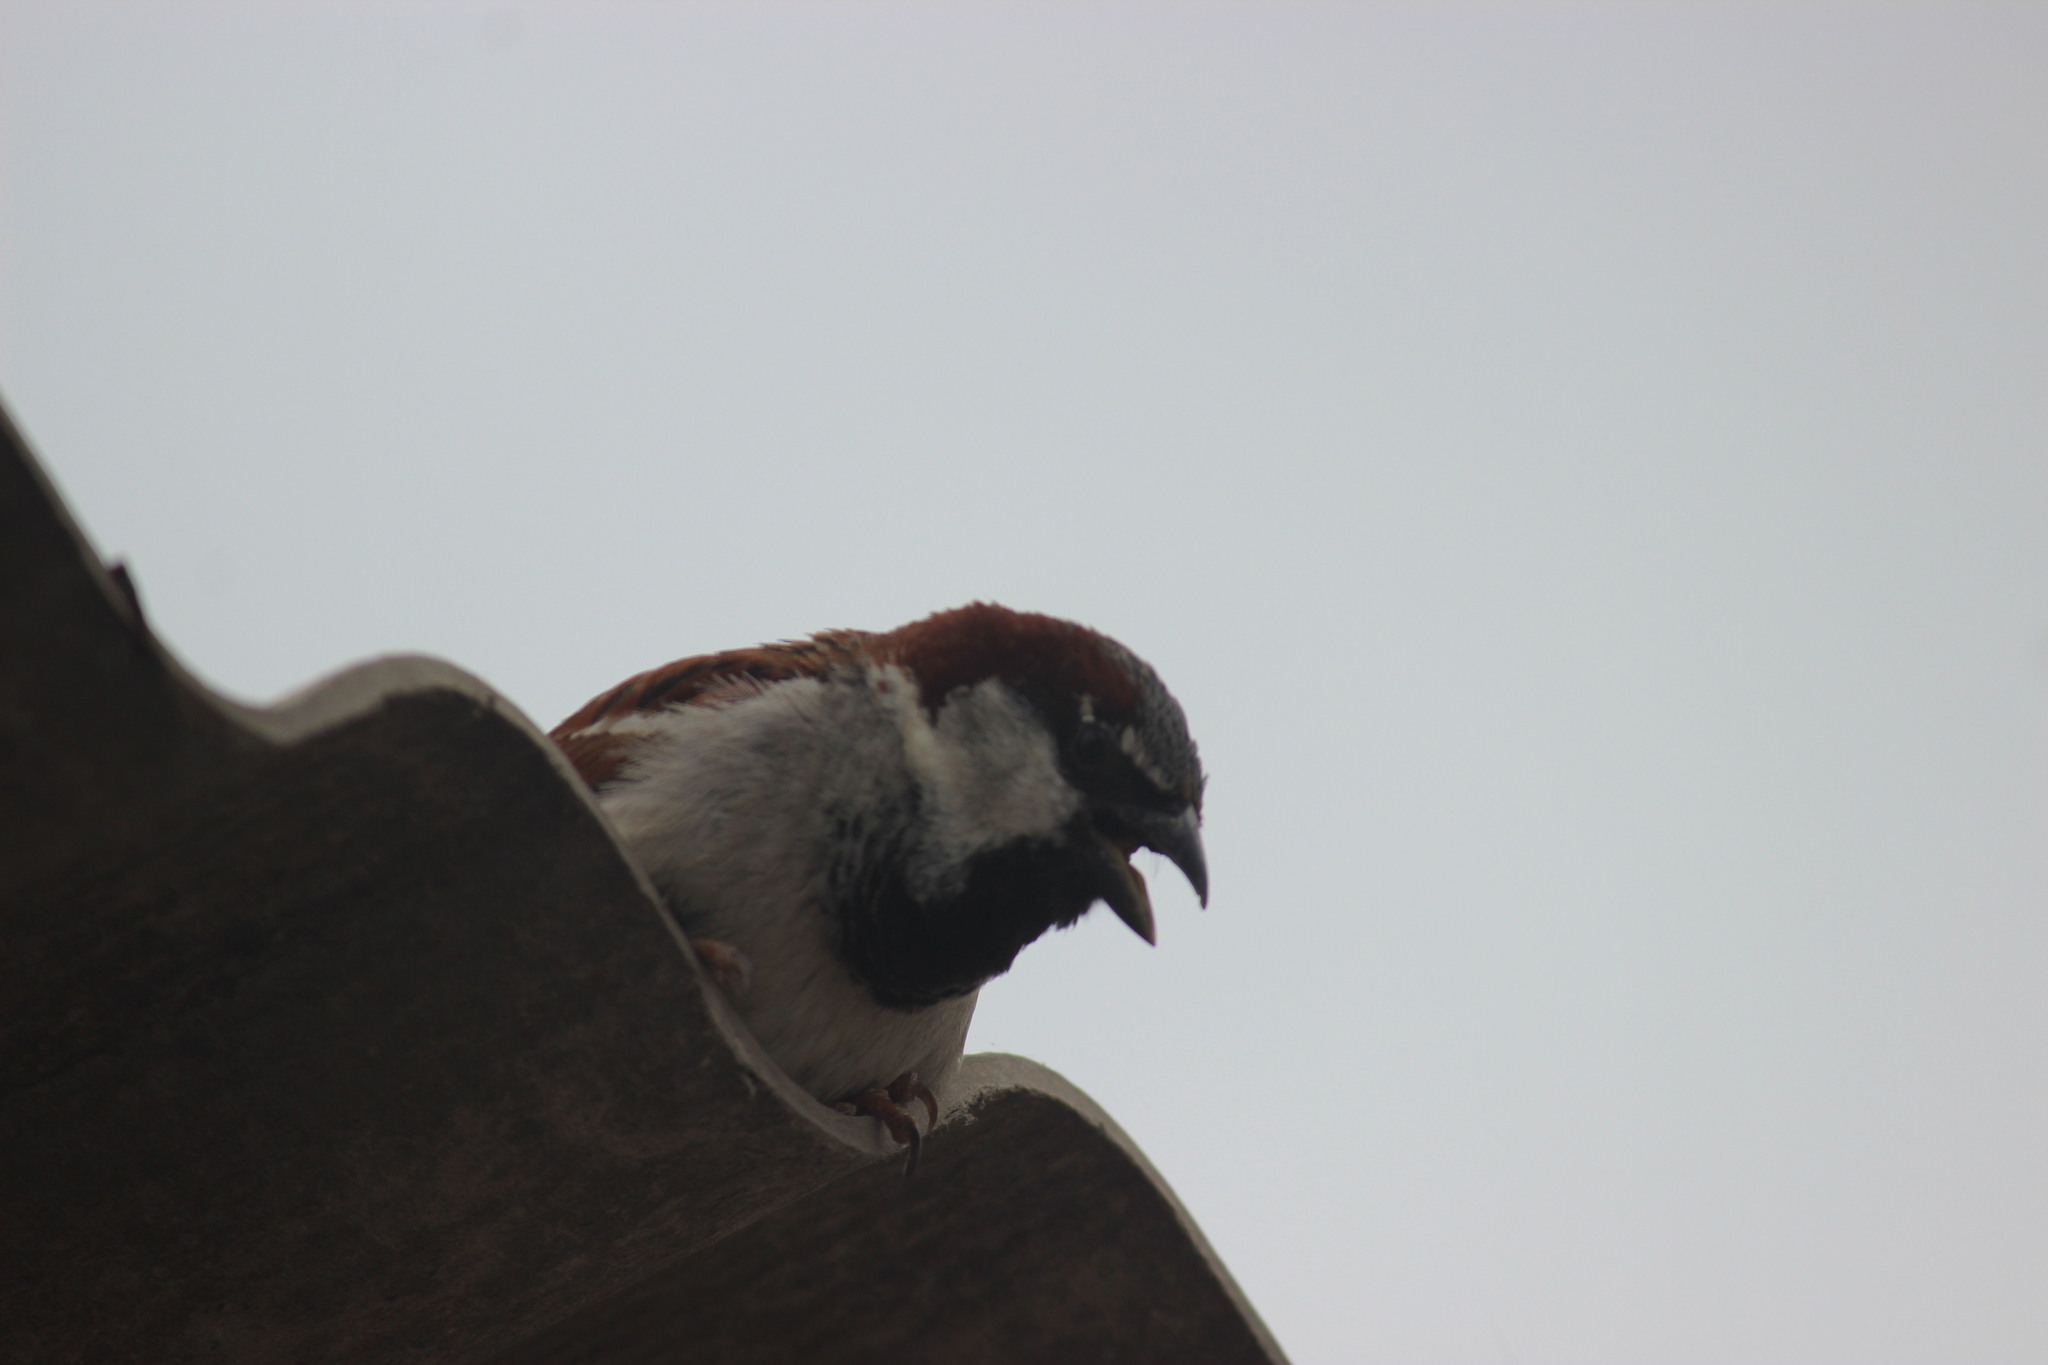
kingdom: Animalia
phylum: Chordata
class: Aves
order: Passeriformes
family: Passeridae
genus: Passer
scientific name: Passer domesticus
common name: House sparrow
